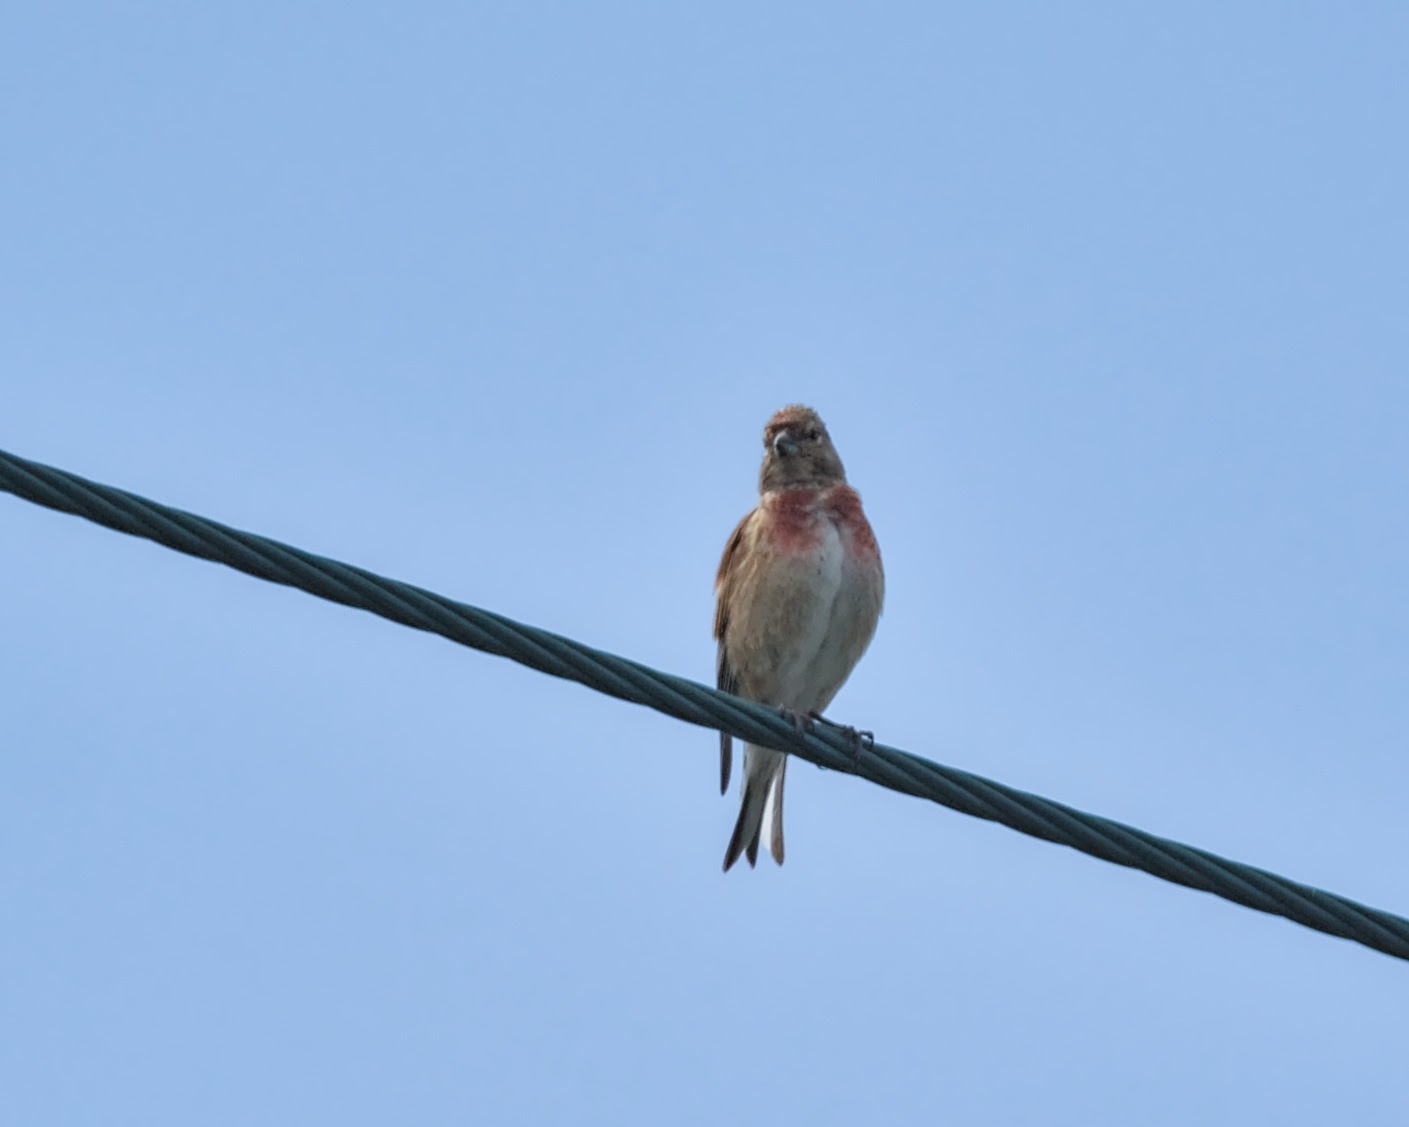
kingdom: Animalia
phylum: Chordata
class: Aves
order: Passeriformes
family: Fringillidae
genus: Linaria
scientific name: Linaria cannabina
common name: Common linnet
